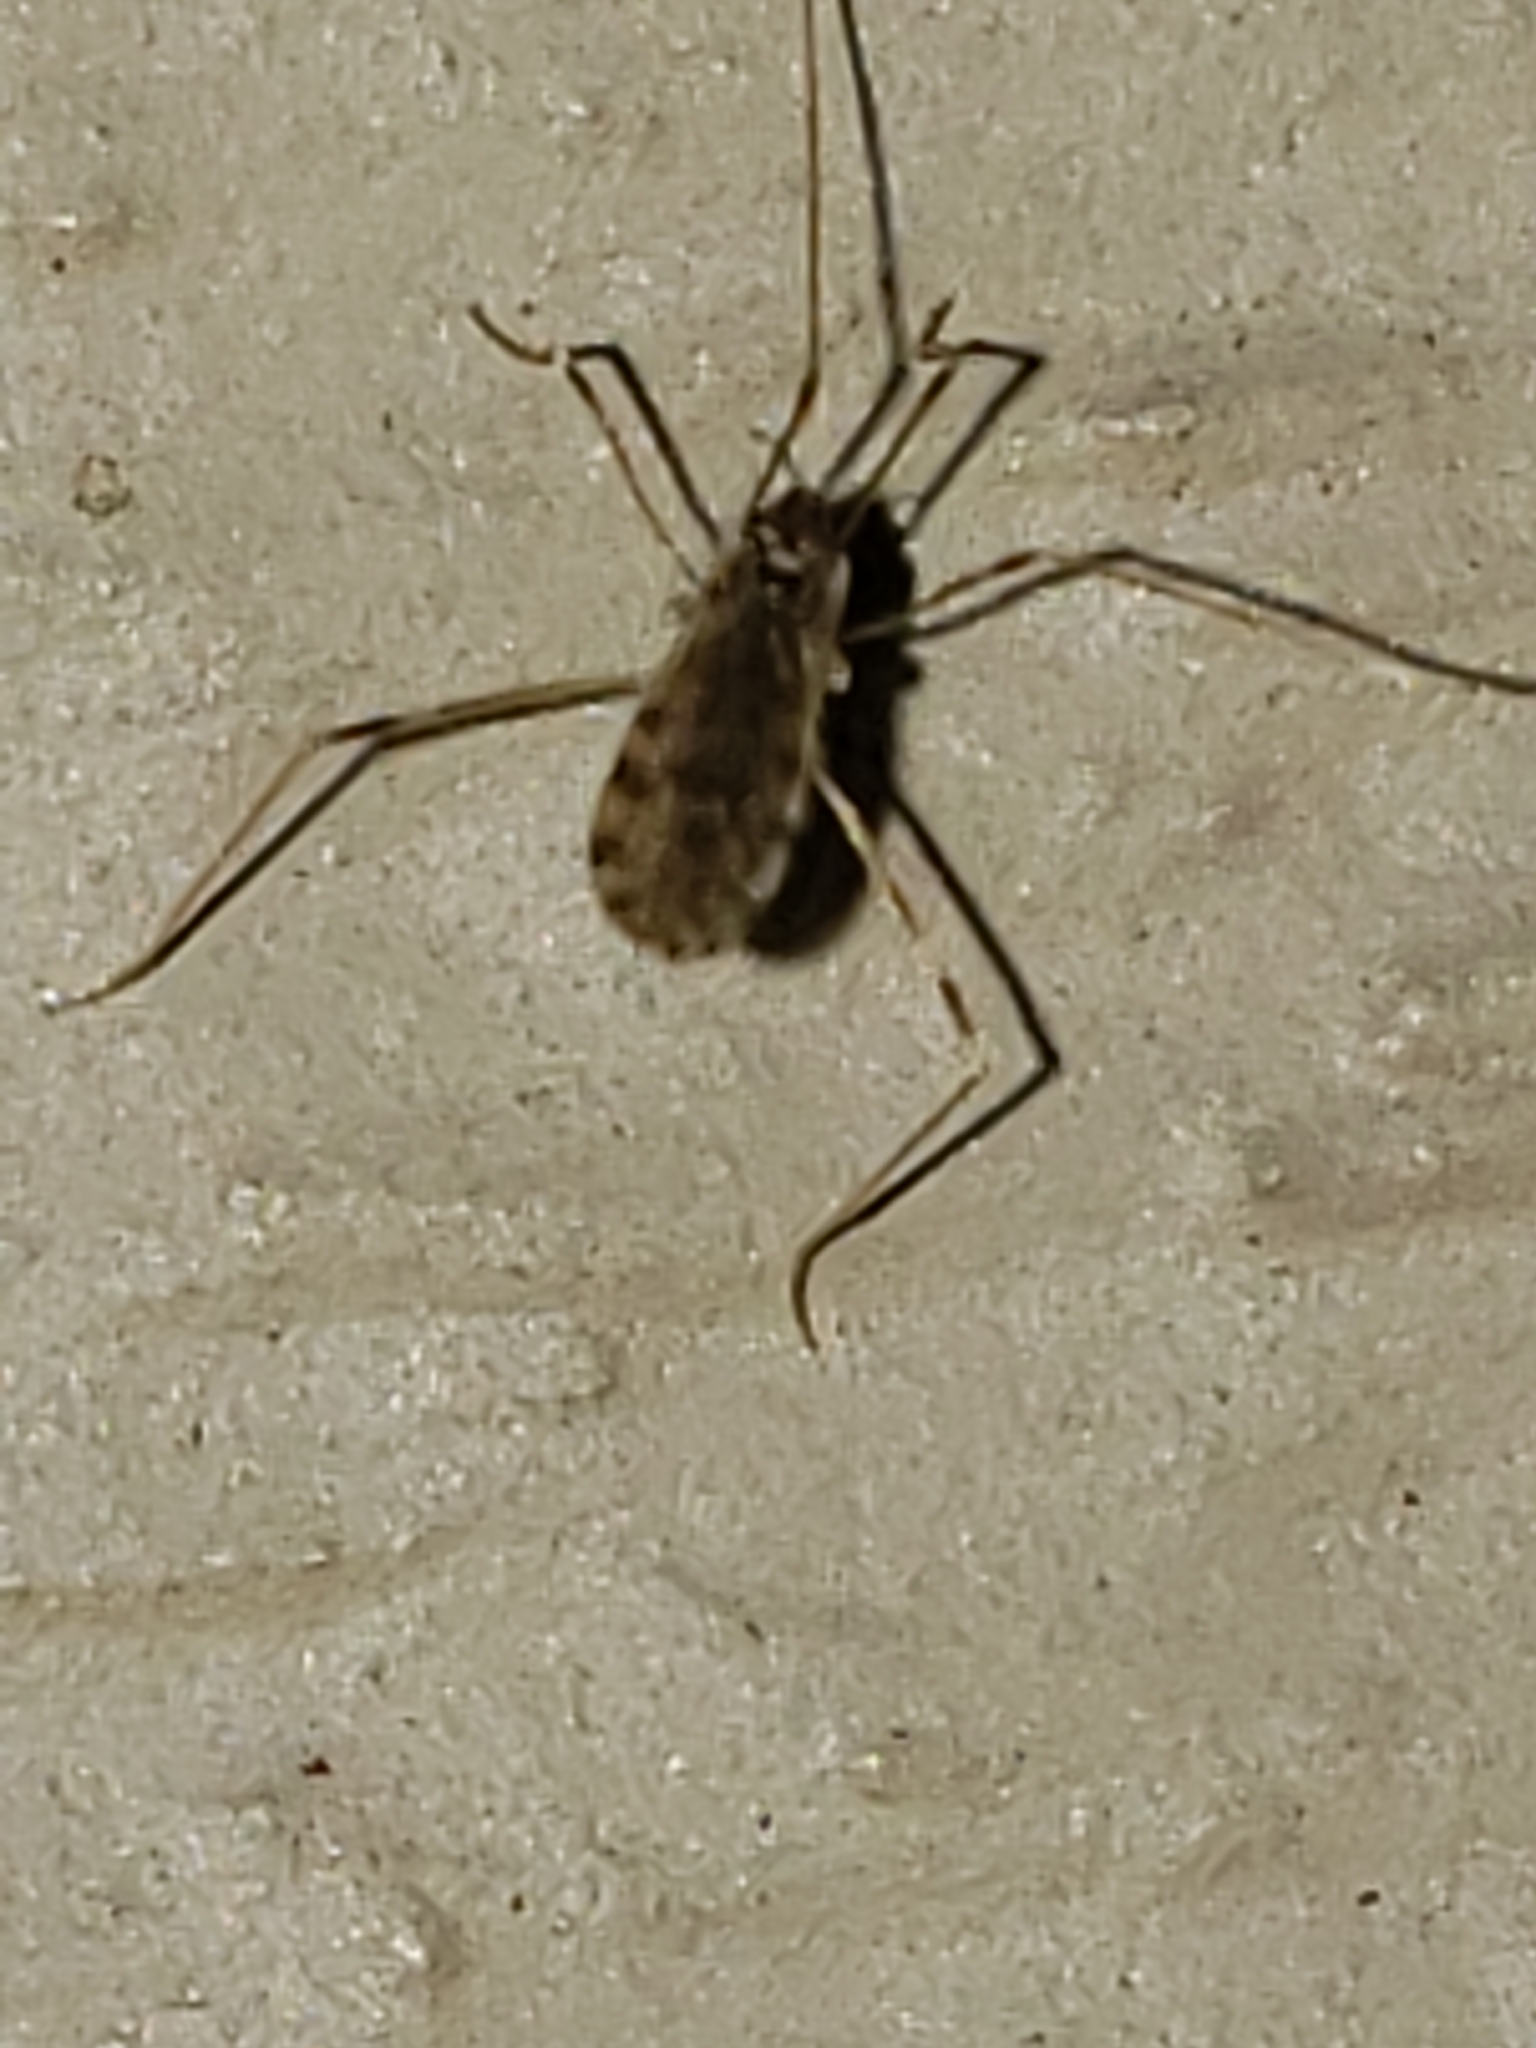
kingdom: Animalia
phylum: Arthropoda
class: Insecta
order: Diptera
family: Limoniidae
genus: Erioptera
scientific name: Erioptera parva
